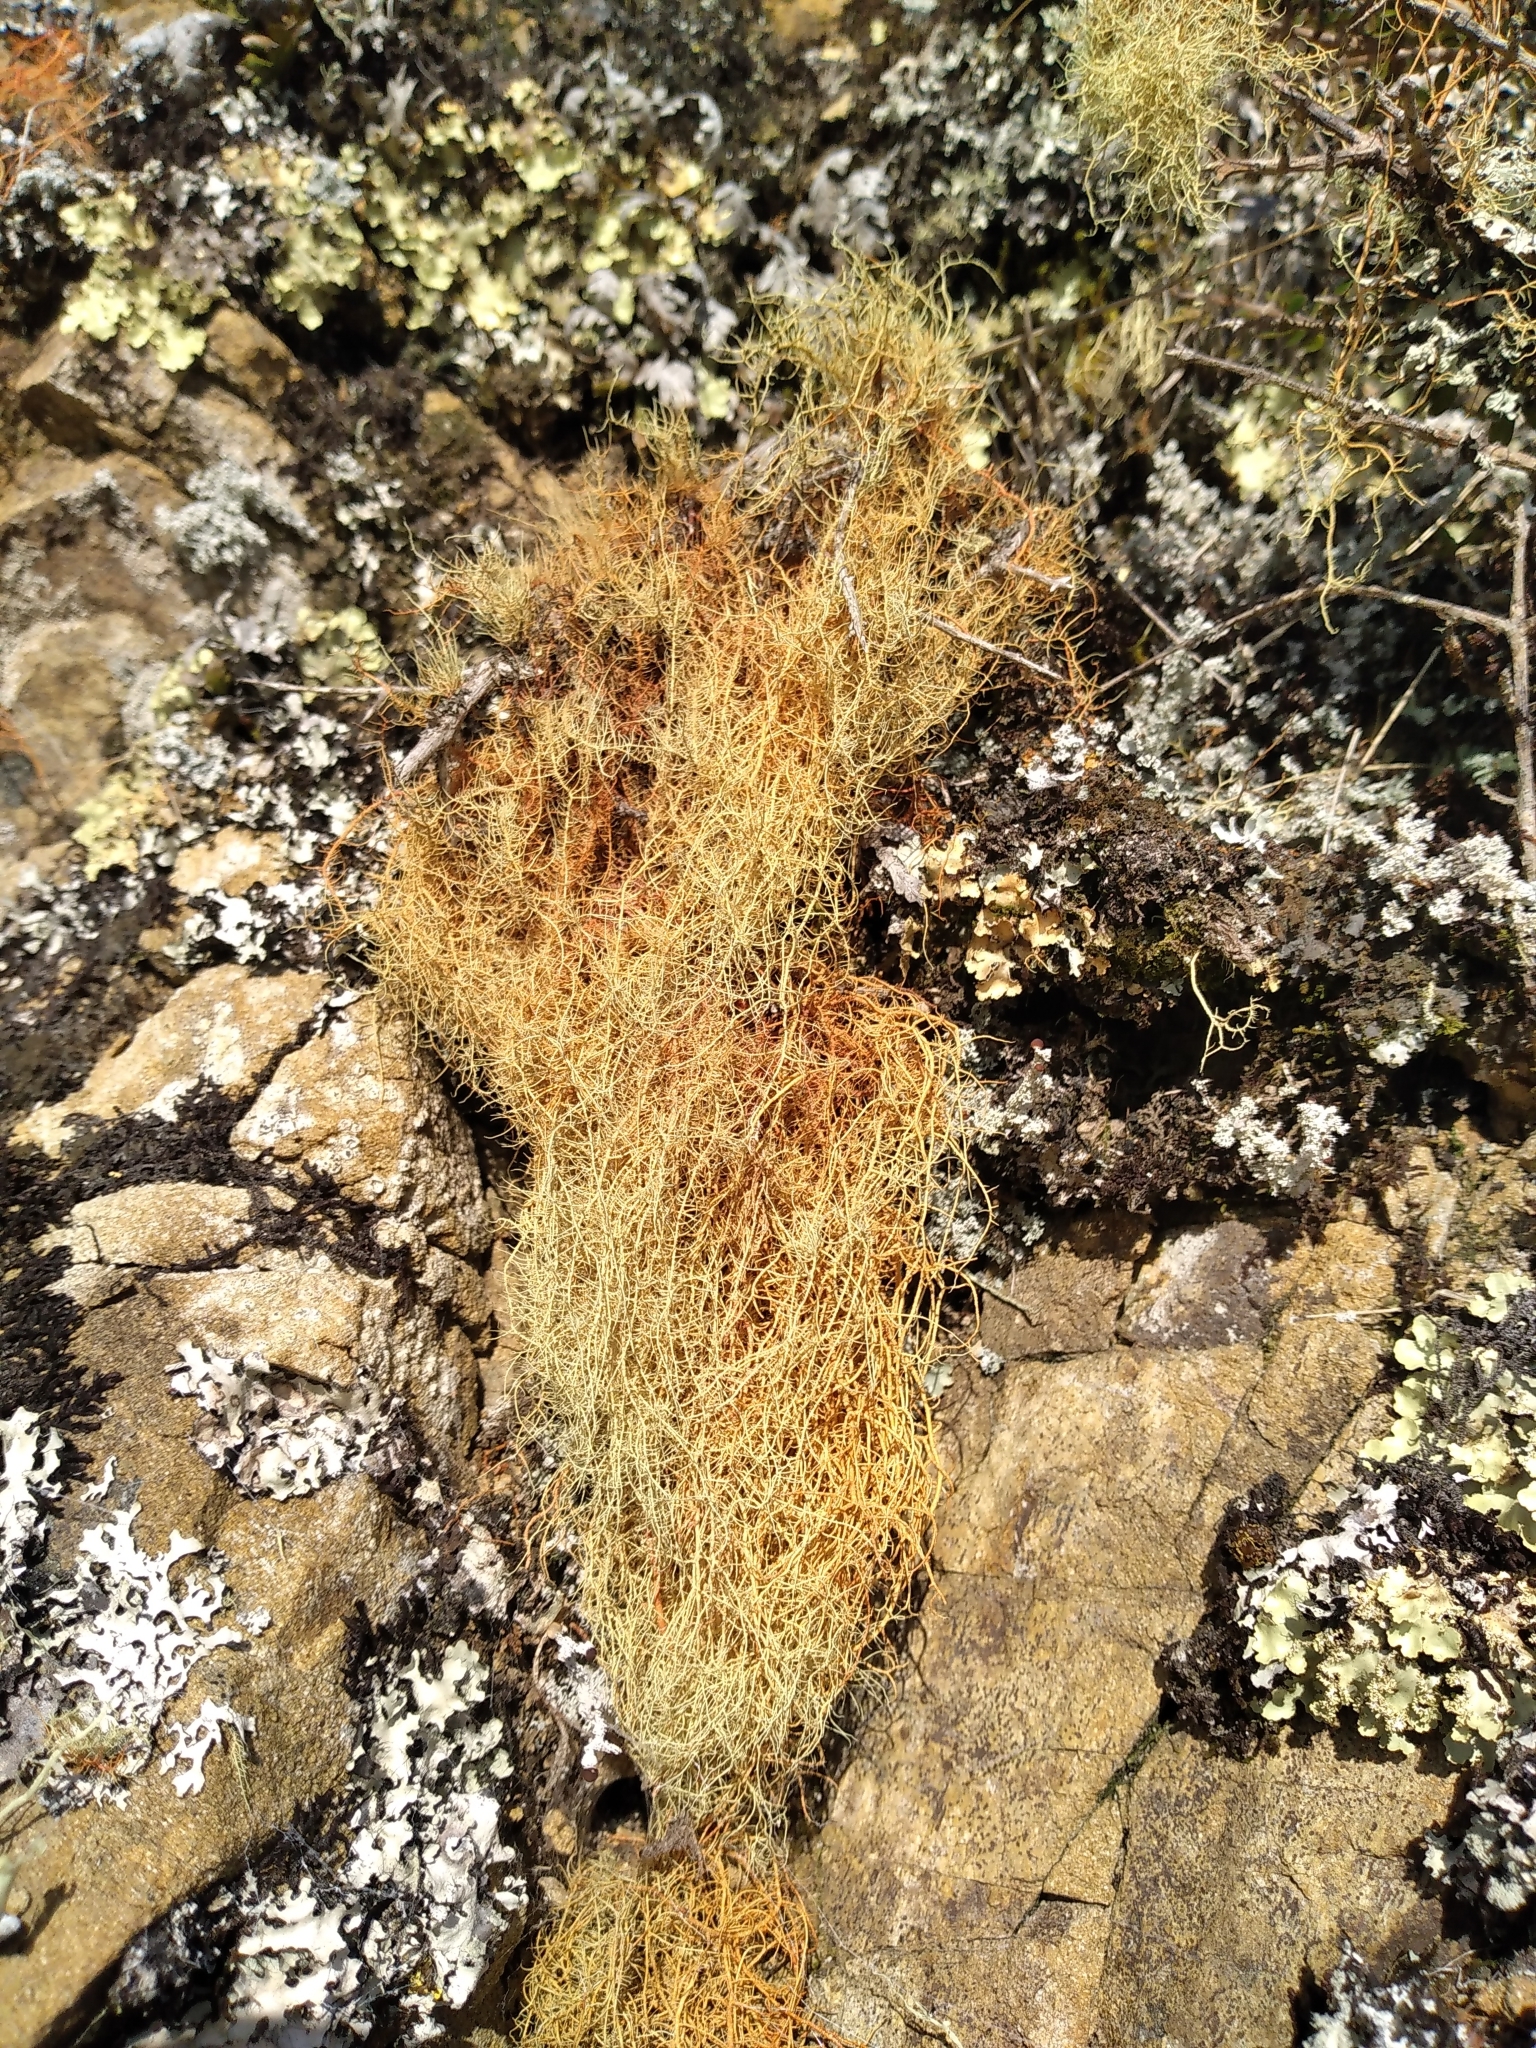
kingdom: Fungi
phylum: Ascomycota
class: Lecanoromycetes
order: Lecanorales
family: Parmeliaceae
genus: Usnea
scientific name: Usnea rubicunda
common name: Red beard lichen
